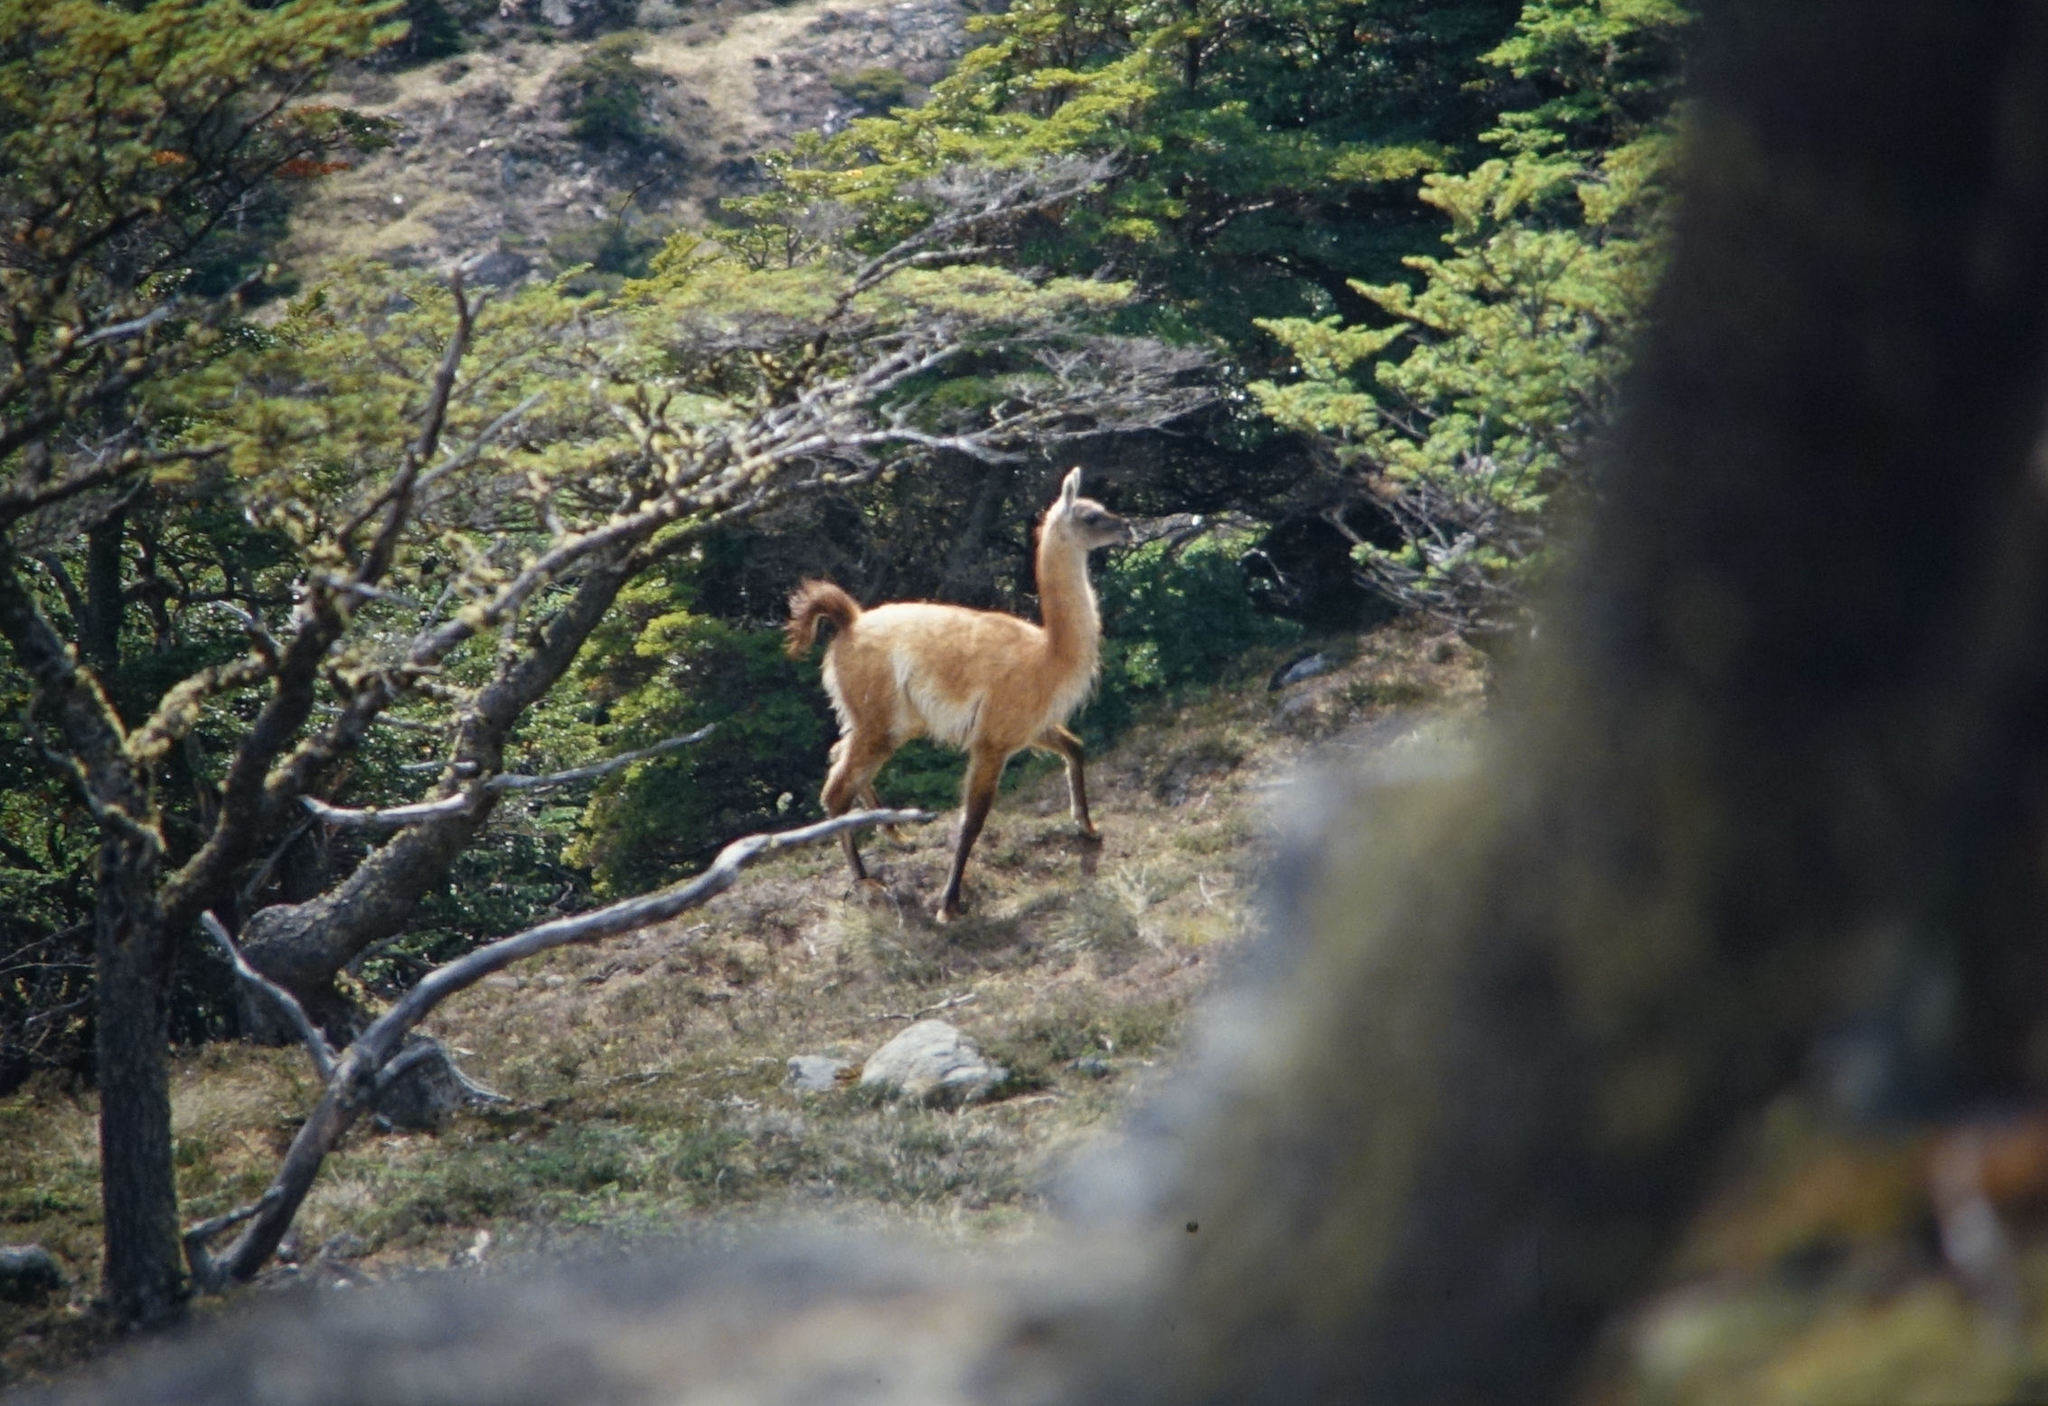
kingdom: Animalia
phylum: Chordata
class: Mammalia
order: Artiodactyla
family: Camelidae
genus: Lama
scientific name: Lama glama
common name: Llama
